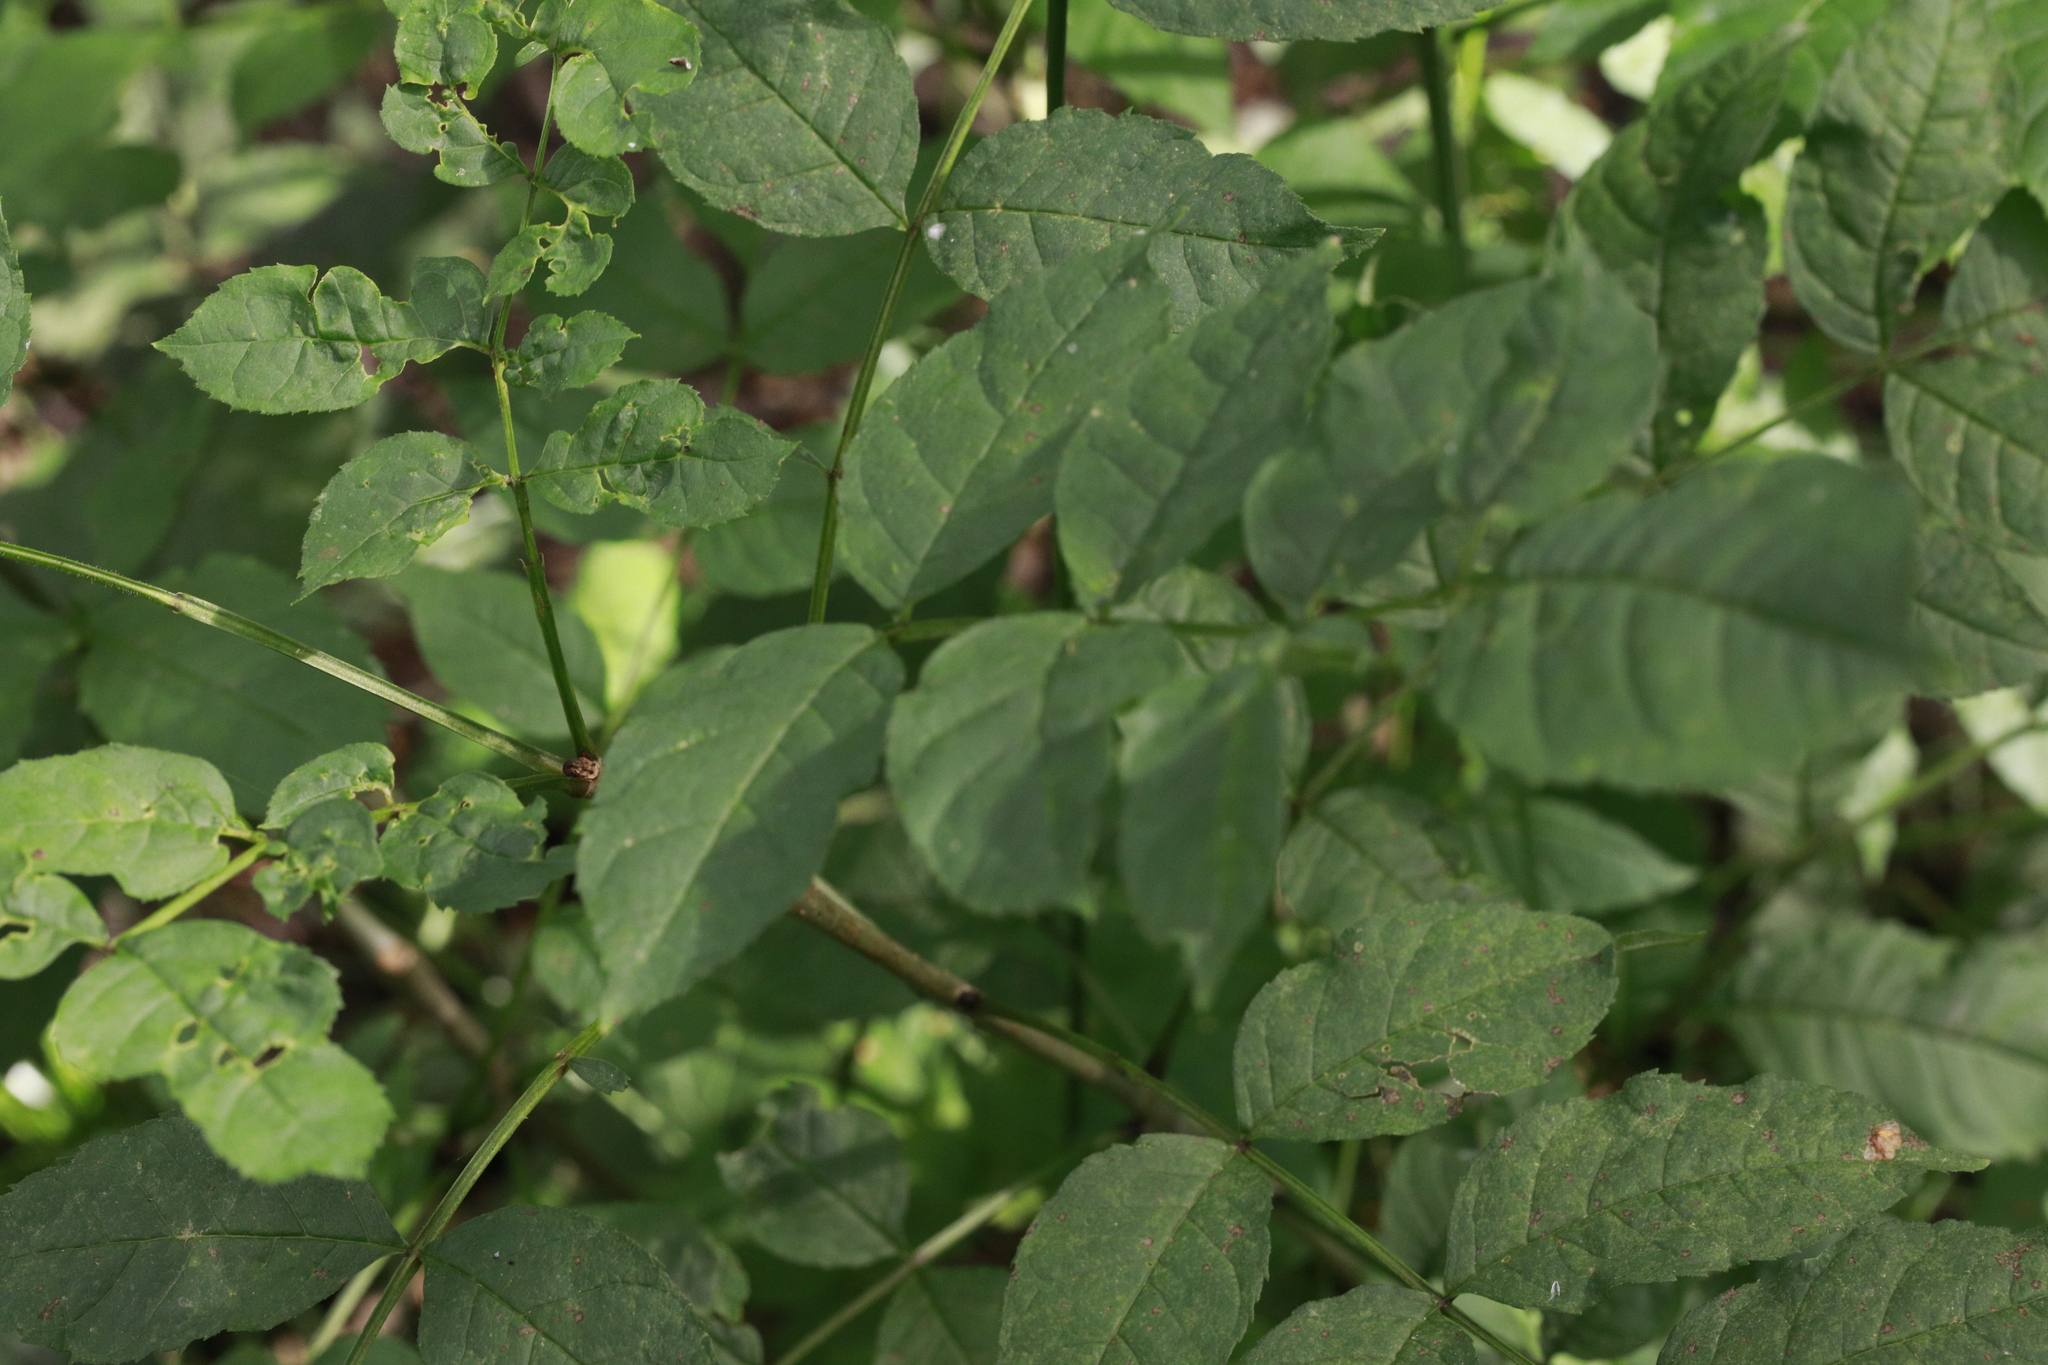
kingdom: Plantae
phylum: Tracheophyta
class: Magnoliopsida
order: Lamiales
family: Oleaceae
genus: Fraxinus
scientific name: Fraxinus excelsior
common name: European ash
